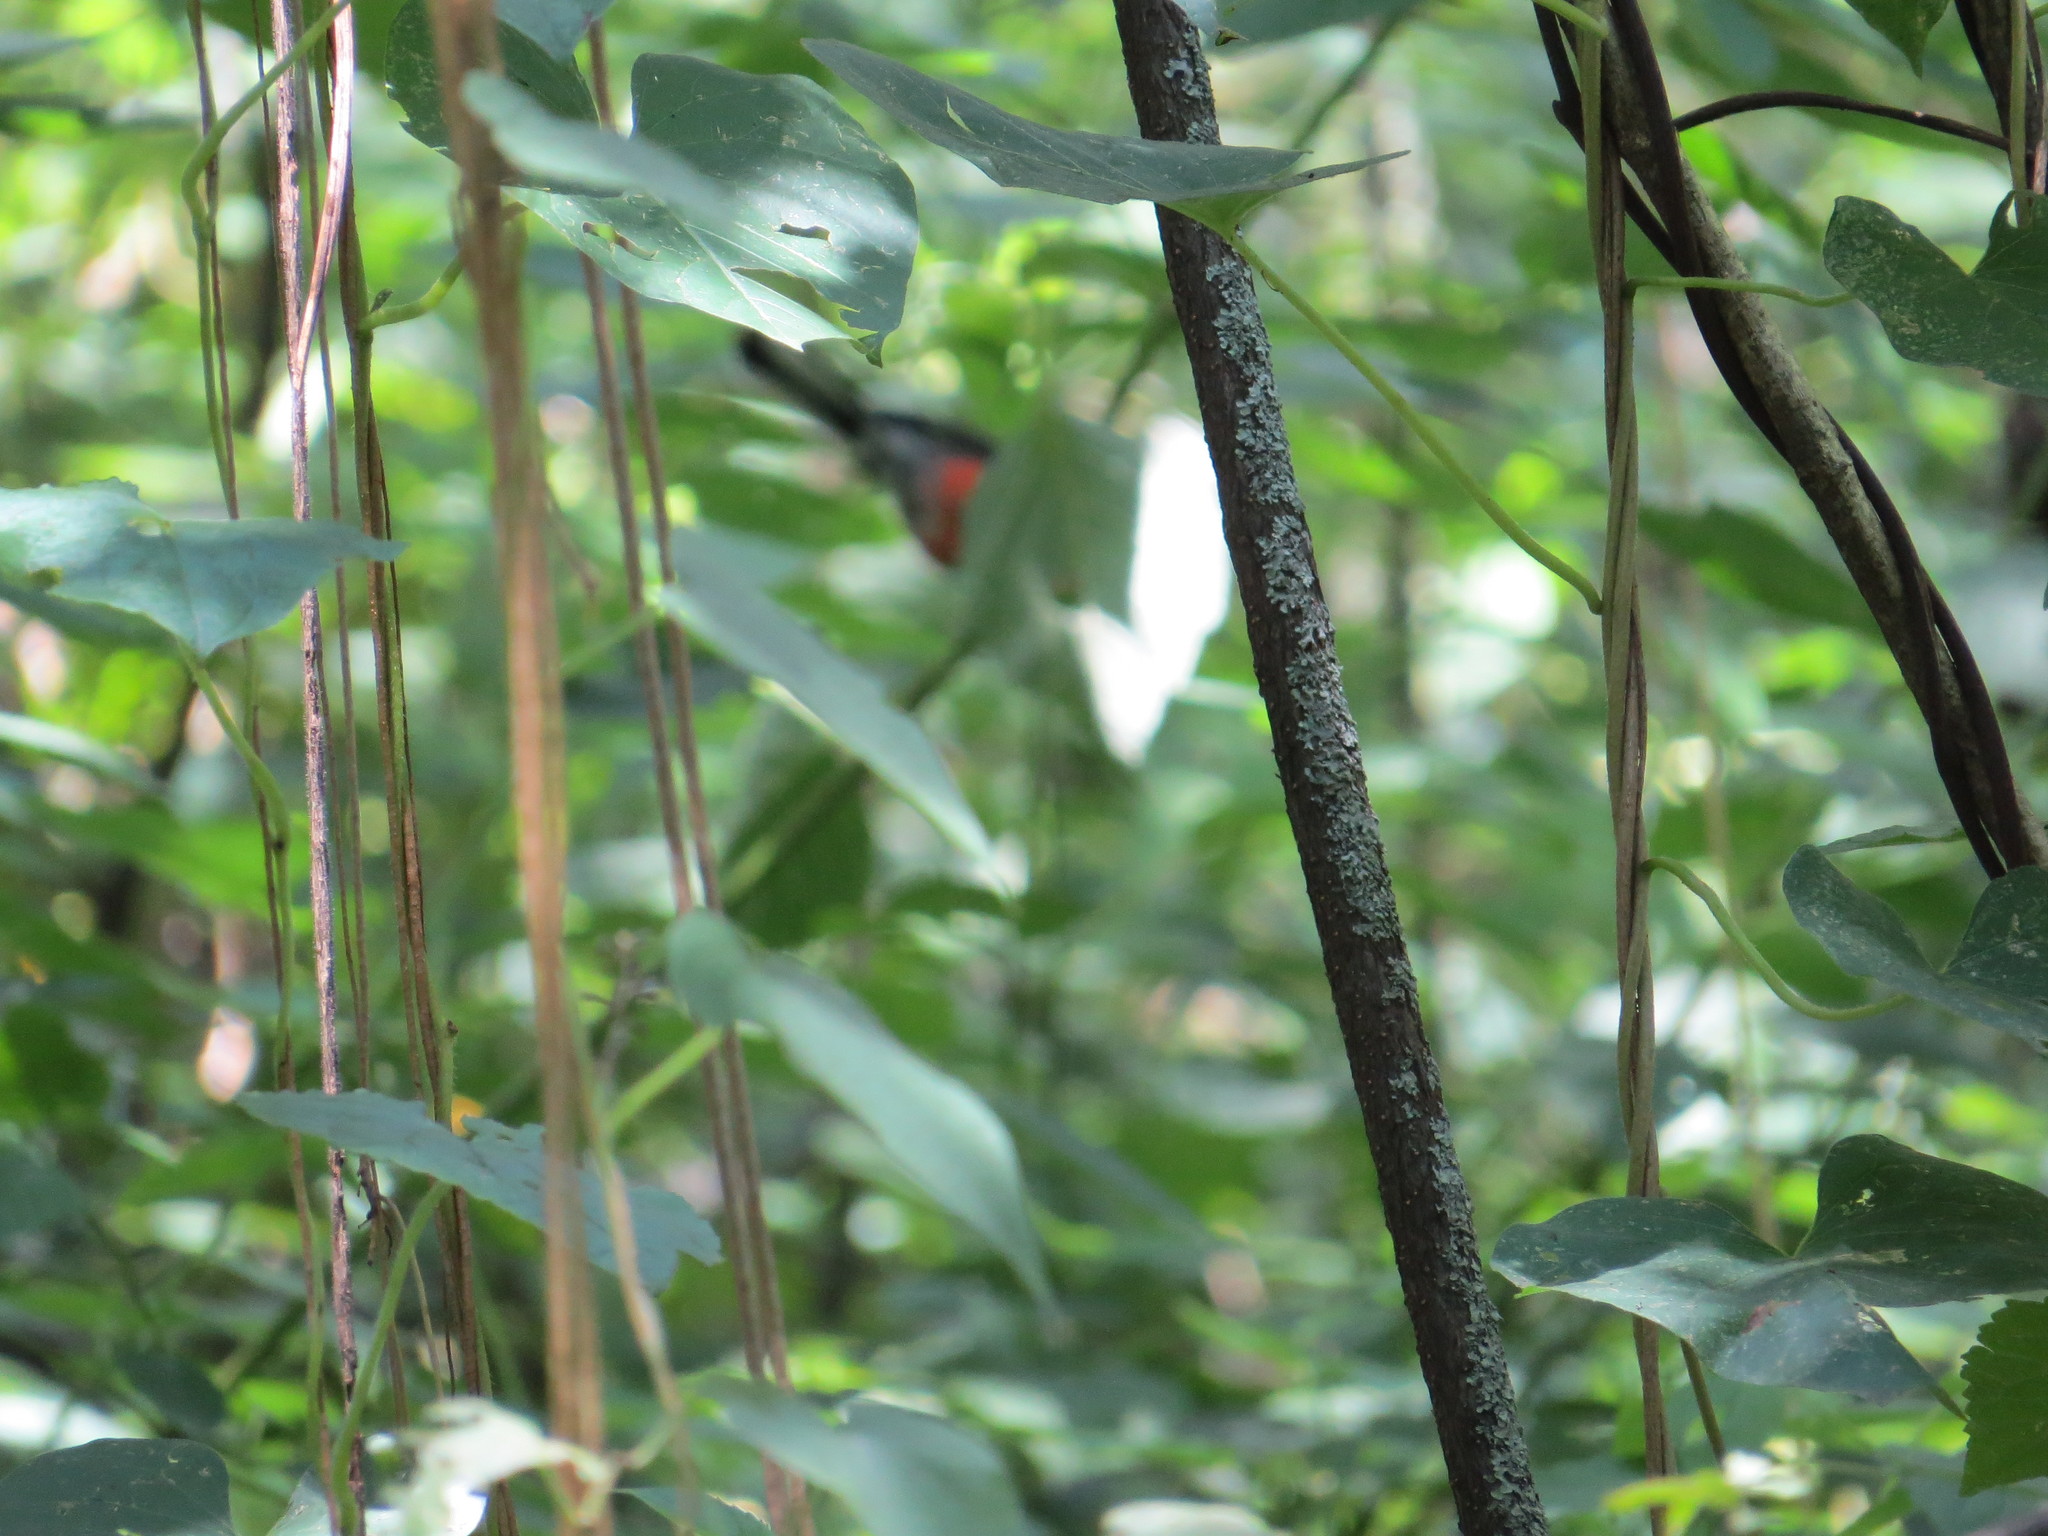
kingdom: Animalia
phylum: Chordata
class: Aves
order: Passeriformes
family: Parulidae
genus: Myioborus
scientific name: Myioborus miniatus
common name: Slate-throated redstart
